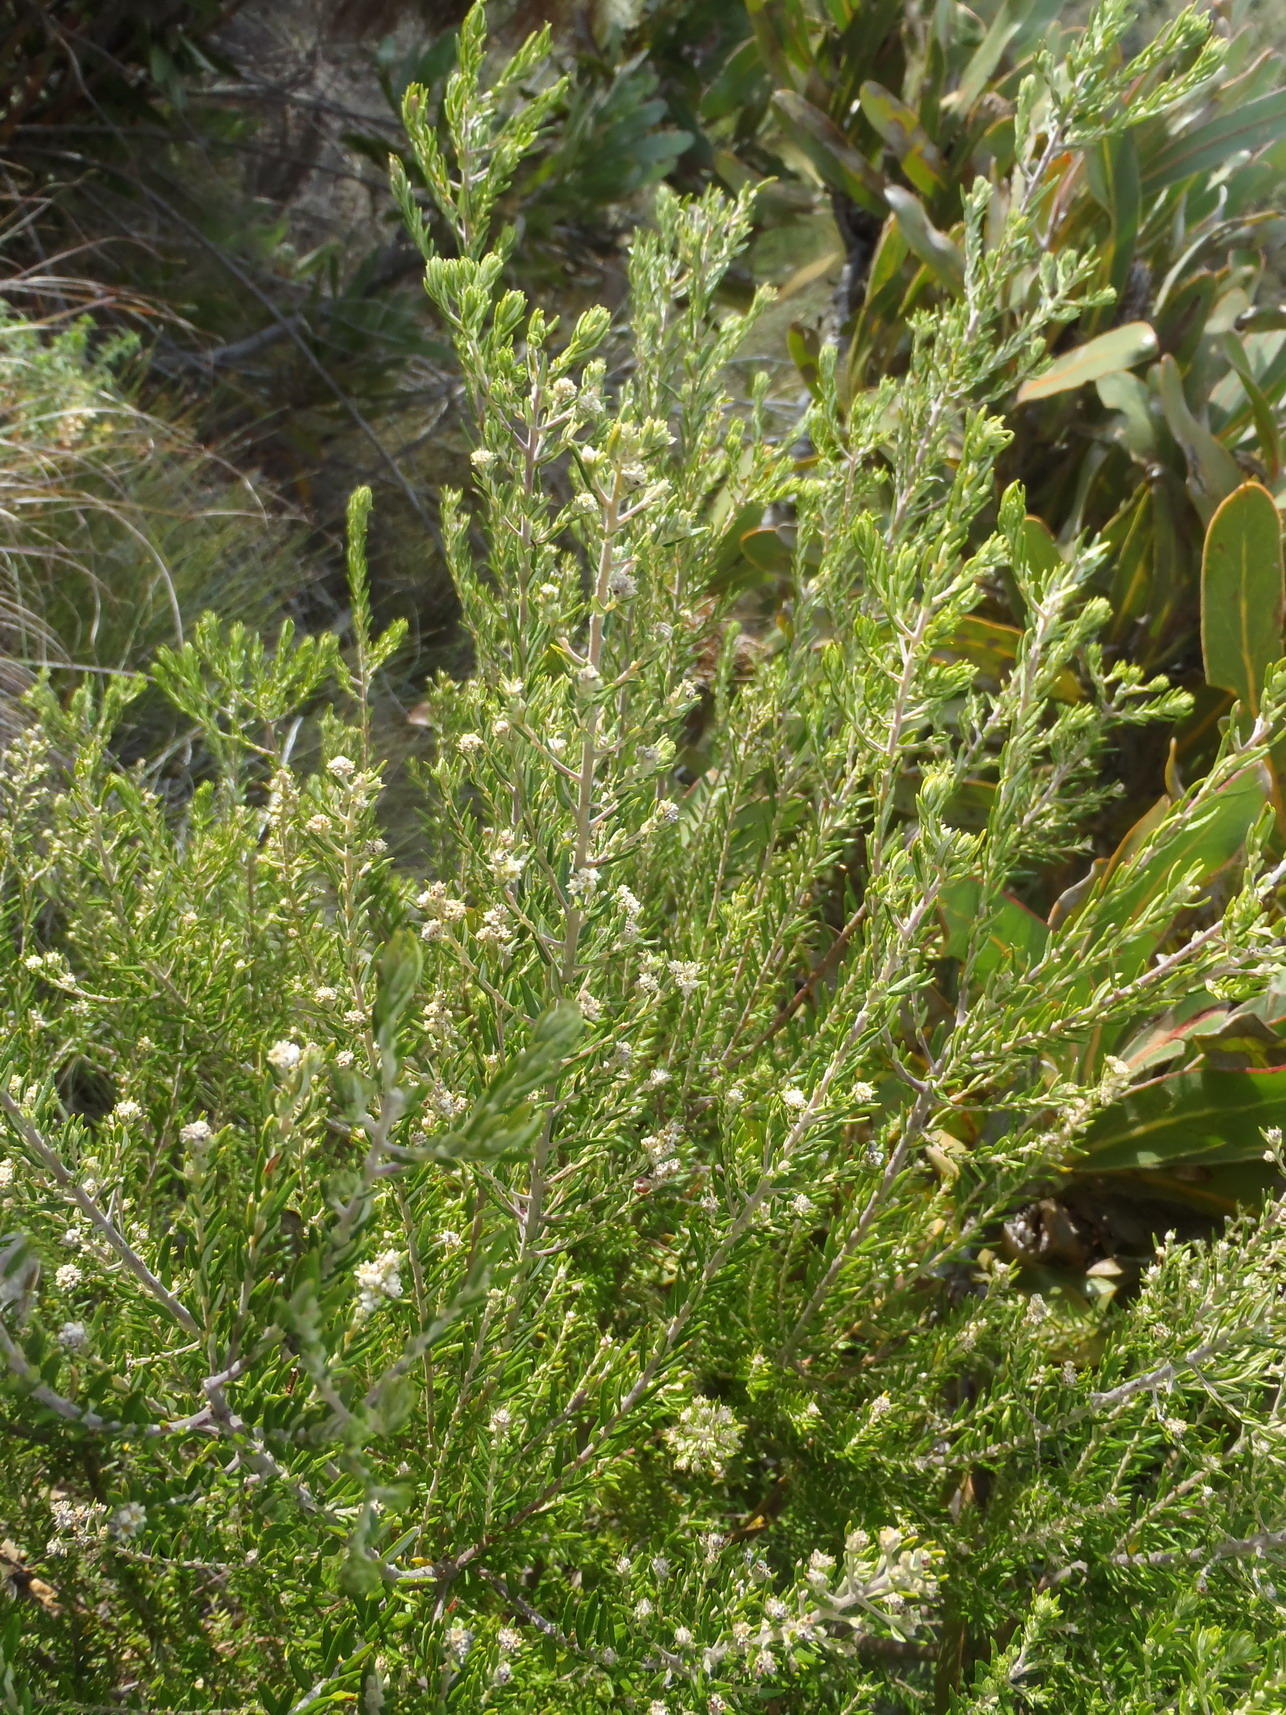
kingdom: Plantae
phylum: Tracheophyta
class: Magnoliopsida
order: Rosales
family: Rhamnaceae
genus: Phylica
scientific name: Phylica paniculata
